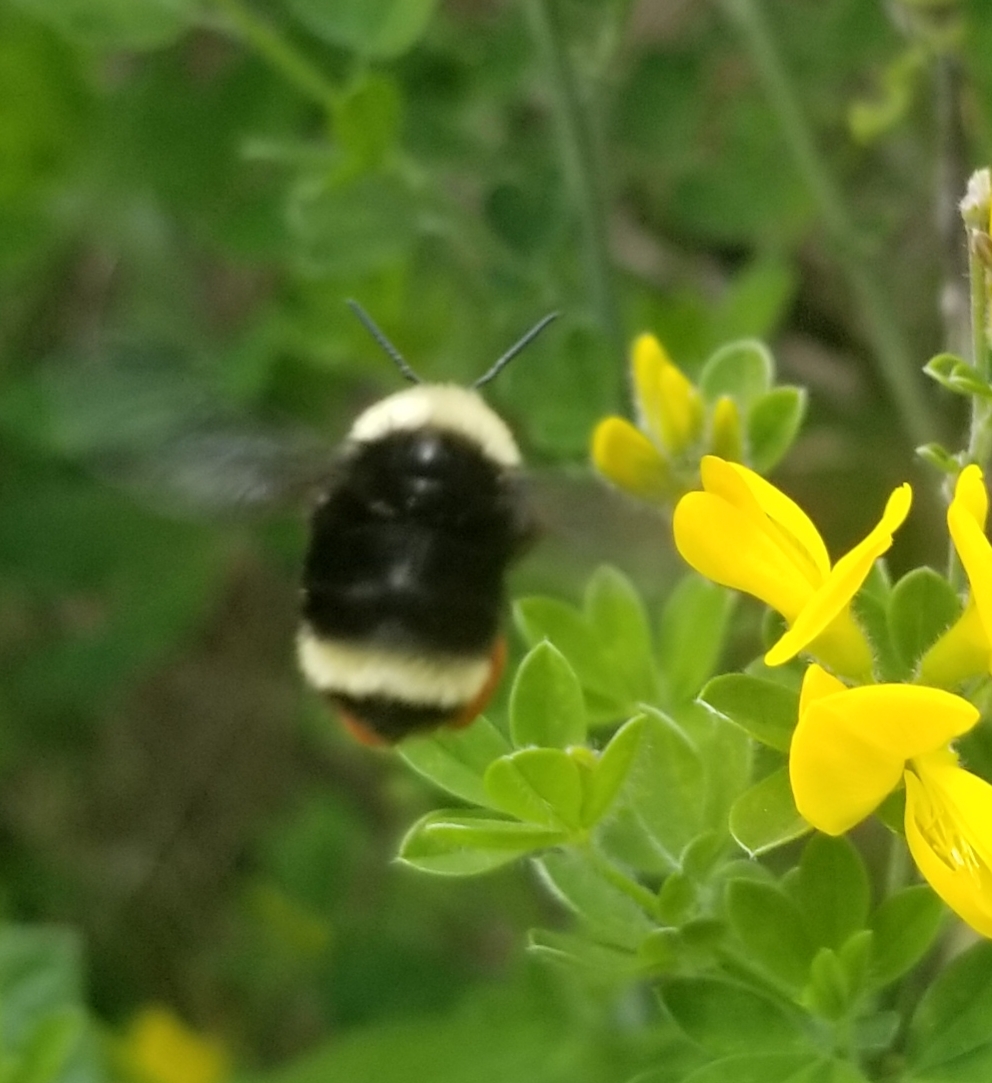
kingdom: Animalia
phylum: Arthropoda
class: Insecta
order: Hymenoptera
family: Apidae
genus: Bombus
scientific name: Bombus
